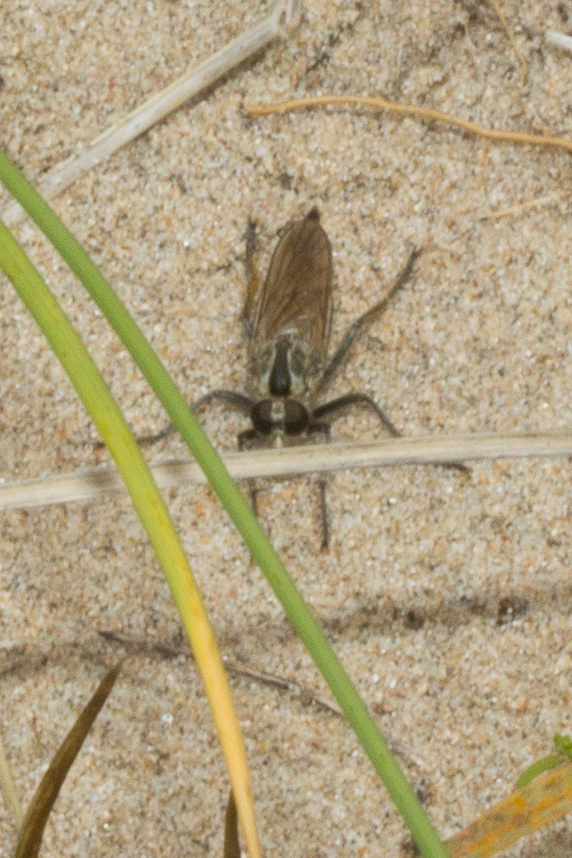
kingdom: Animalia
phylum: Arthropoda
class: Insecta
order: Diptera
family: Asilidae
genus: Philonicus
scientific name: Philonicus albiceps
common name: Dune robberfly
